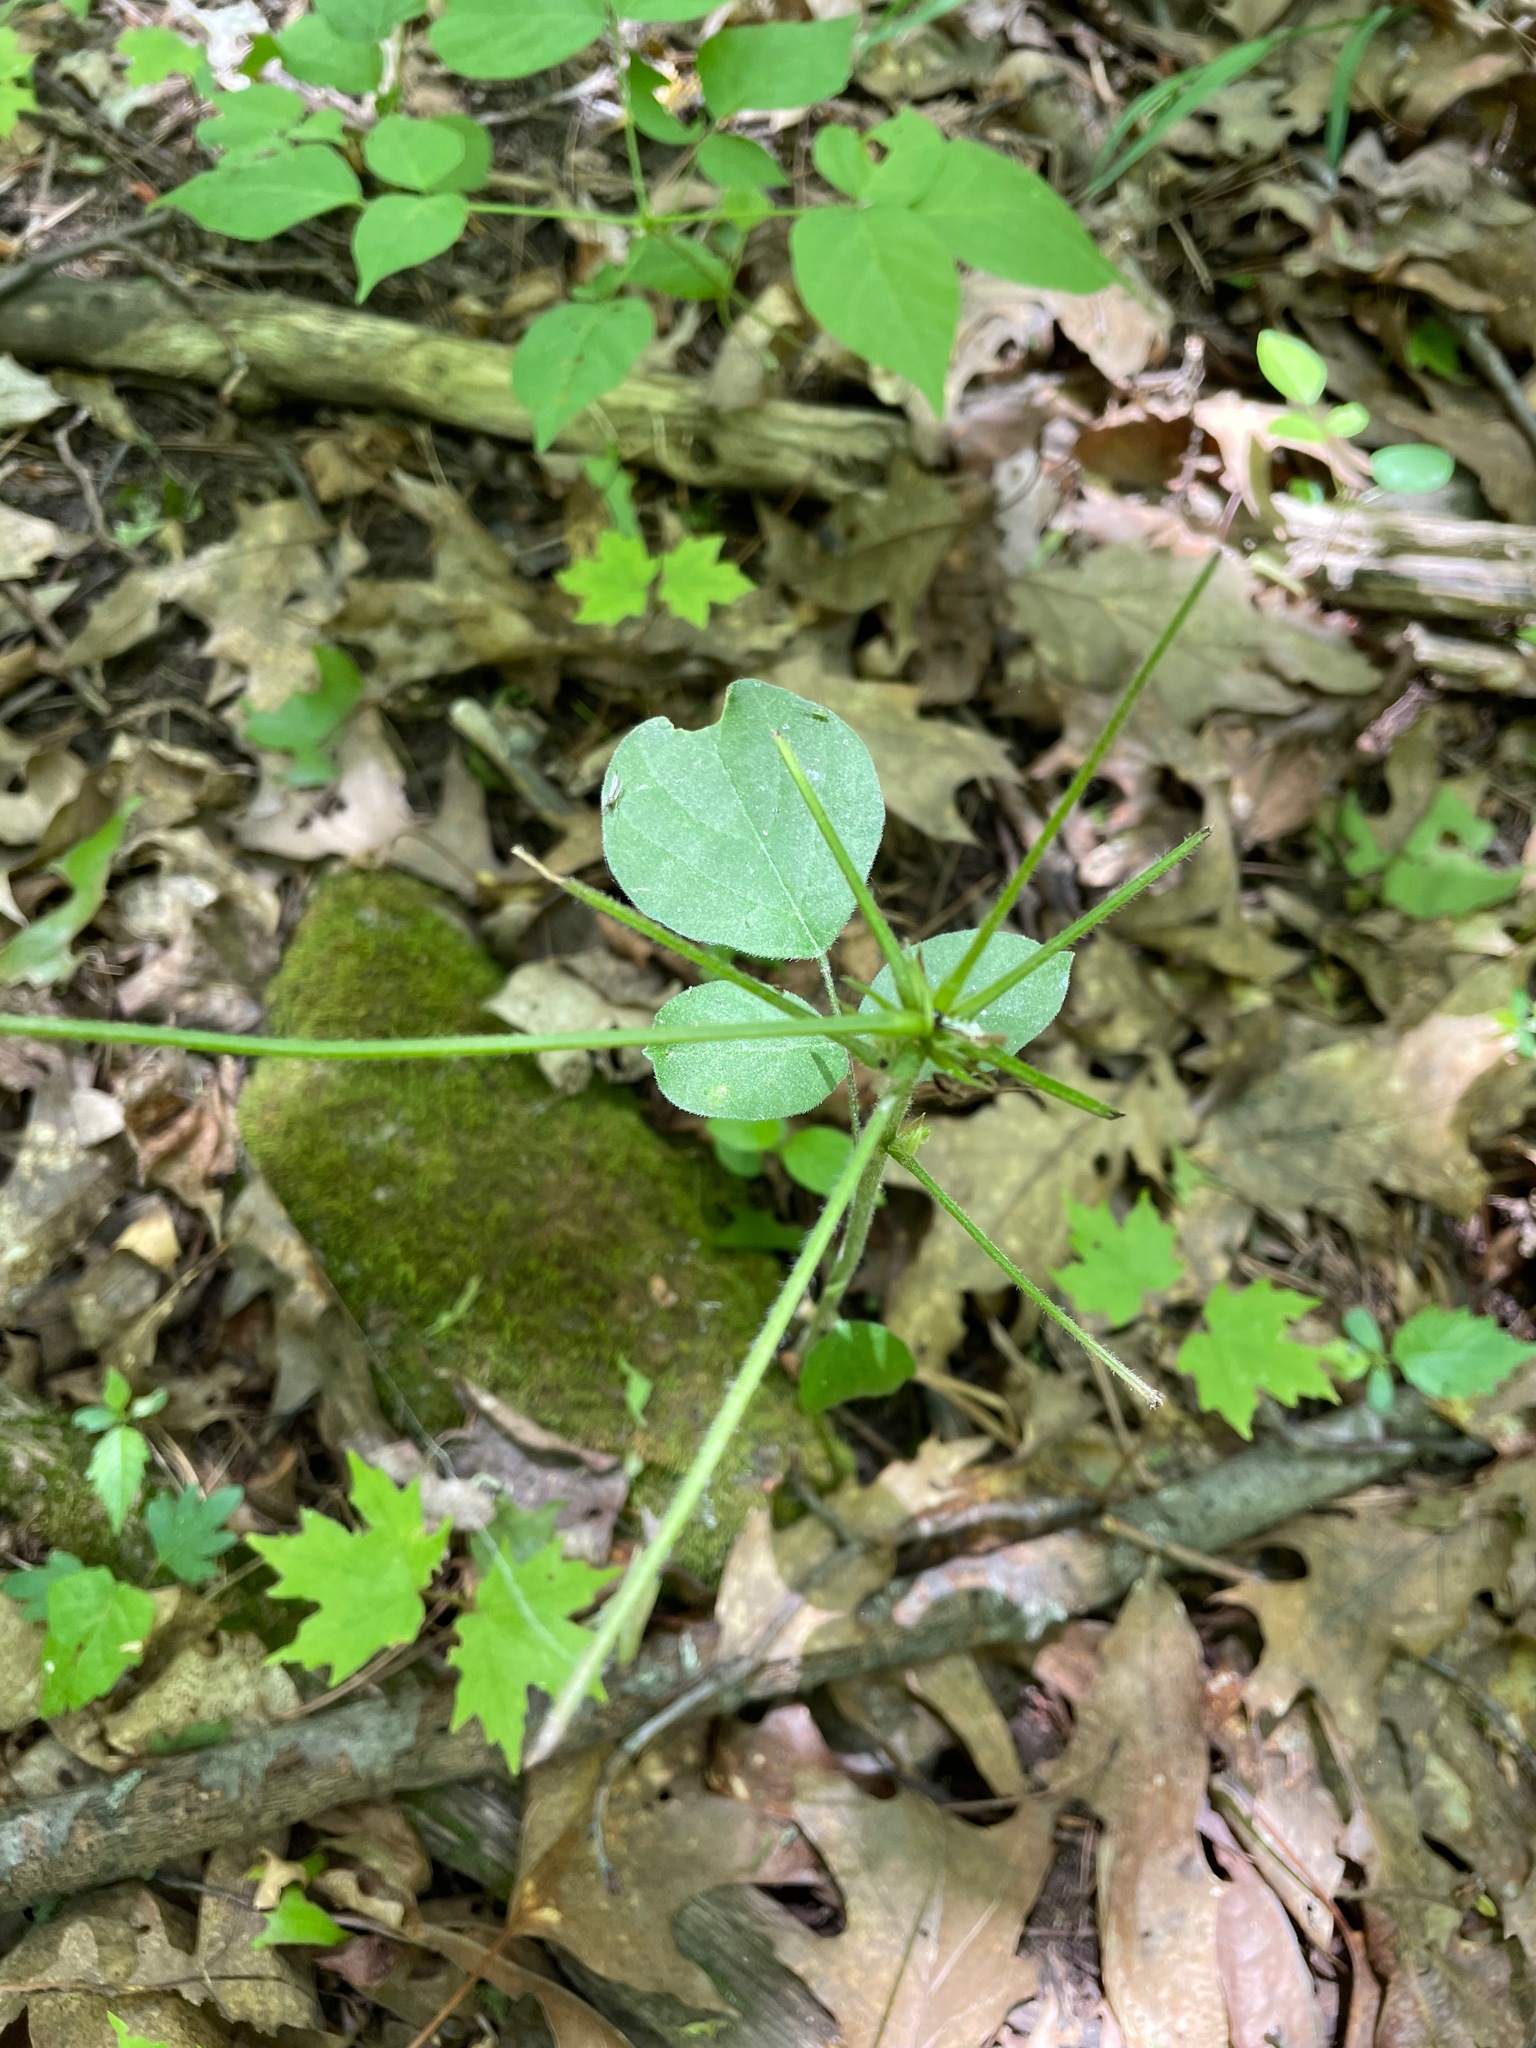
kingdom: Plantae
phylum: Tracheophyta
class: Magnoliopsida
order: Fabales
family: Fabaceae
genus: Hylodesmum
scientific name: Hylodesmum glutinosum
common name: Clustered-leaved tick-trefoil
